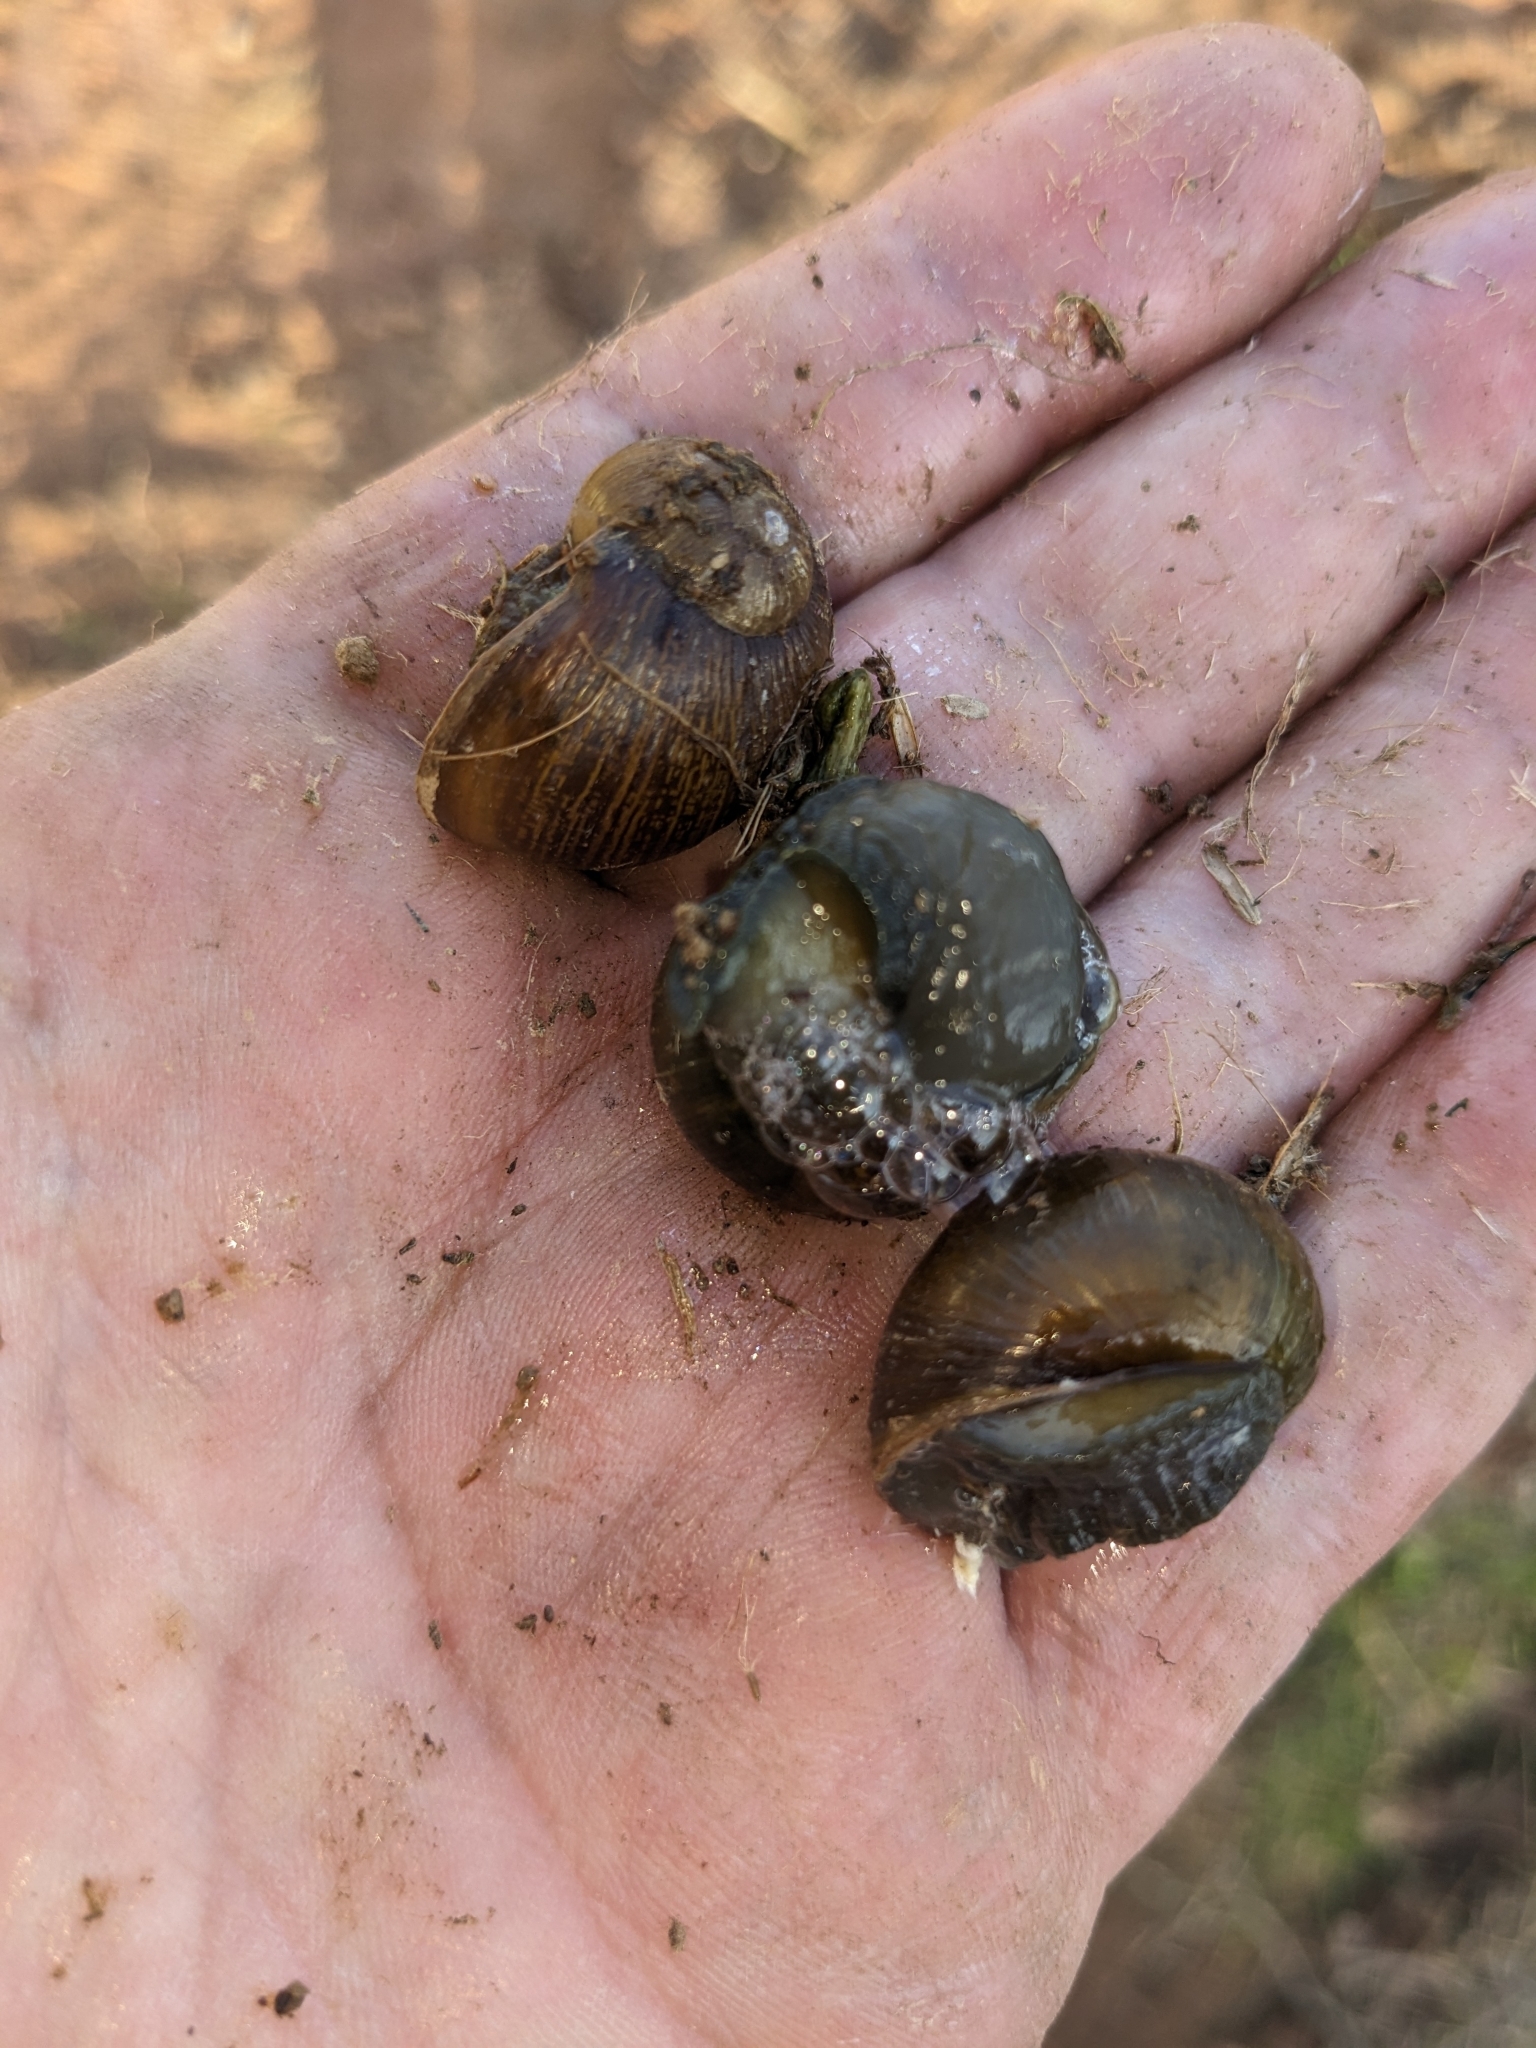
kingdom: Animalia
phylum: Mollusca
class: Gastropoda
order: Stylommatophora
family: Helicidae
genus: Cantareus
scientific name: Cantareus apertus
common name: Green gardensnail
